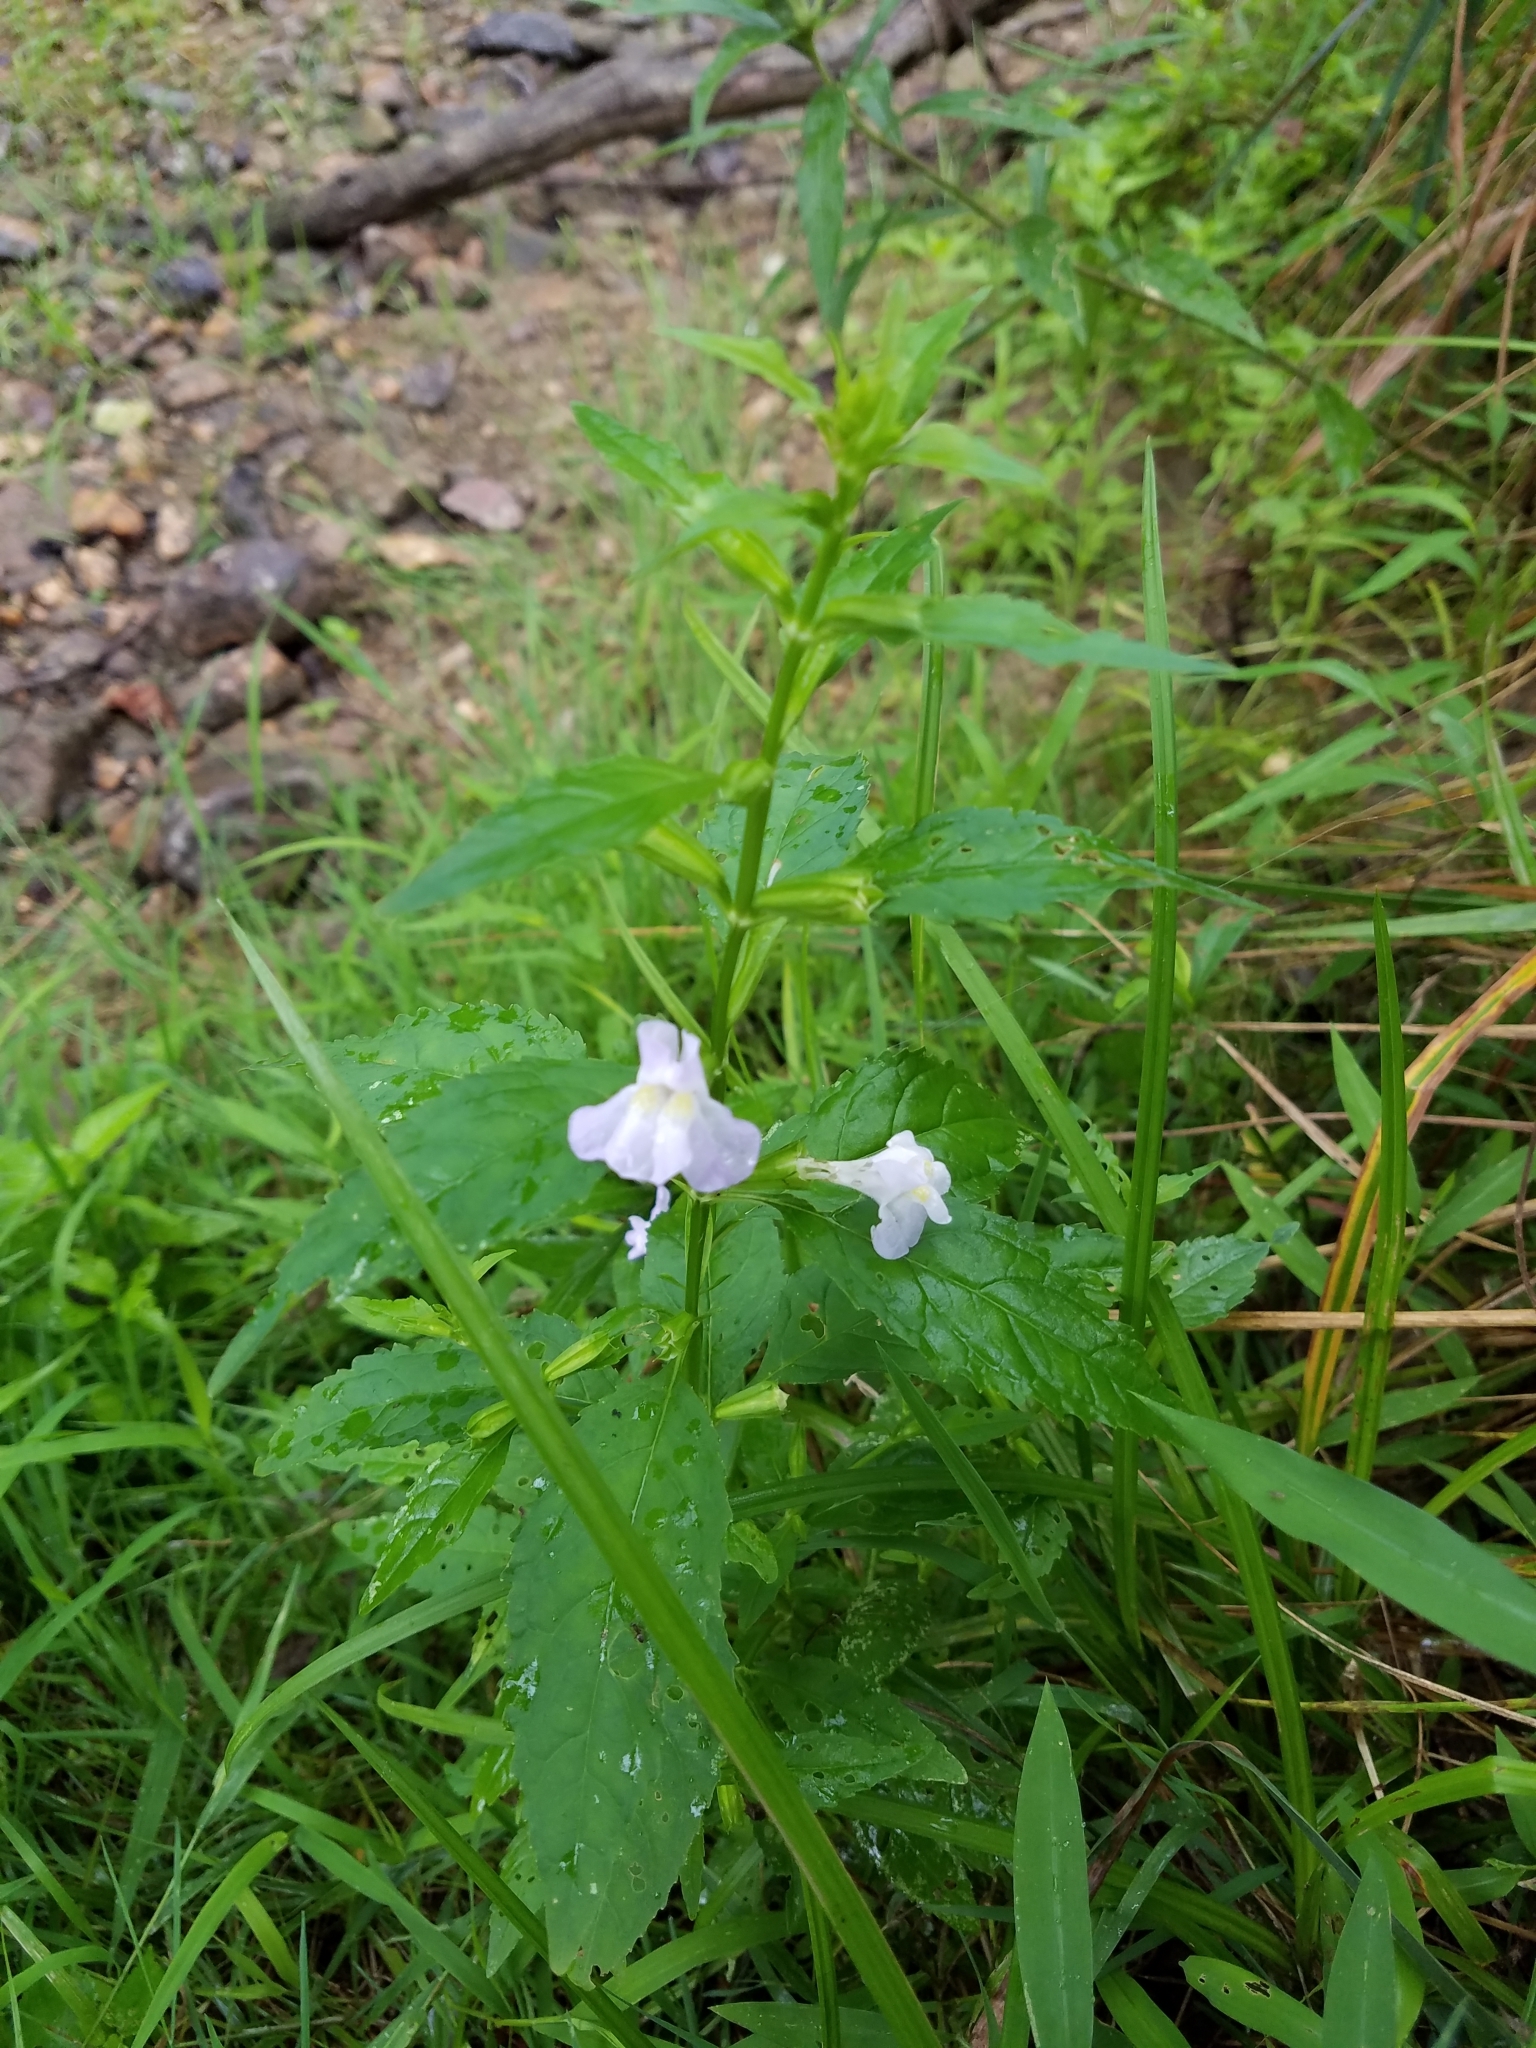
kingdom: Plantae
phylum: Tracheophyta
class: Magnoliopsida
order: Lamiales
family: Phrymaceae
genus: Mimulus
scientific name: Mimulus alatus
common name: Sharp-wing monkey-flower
